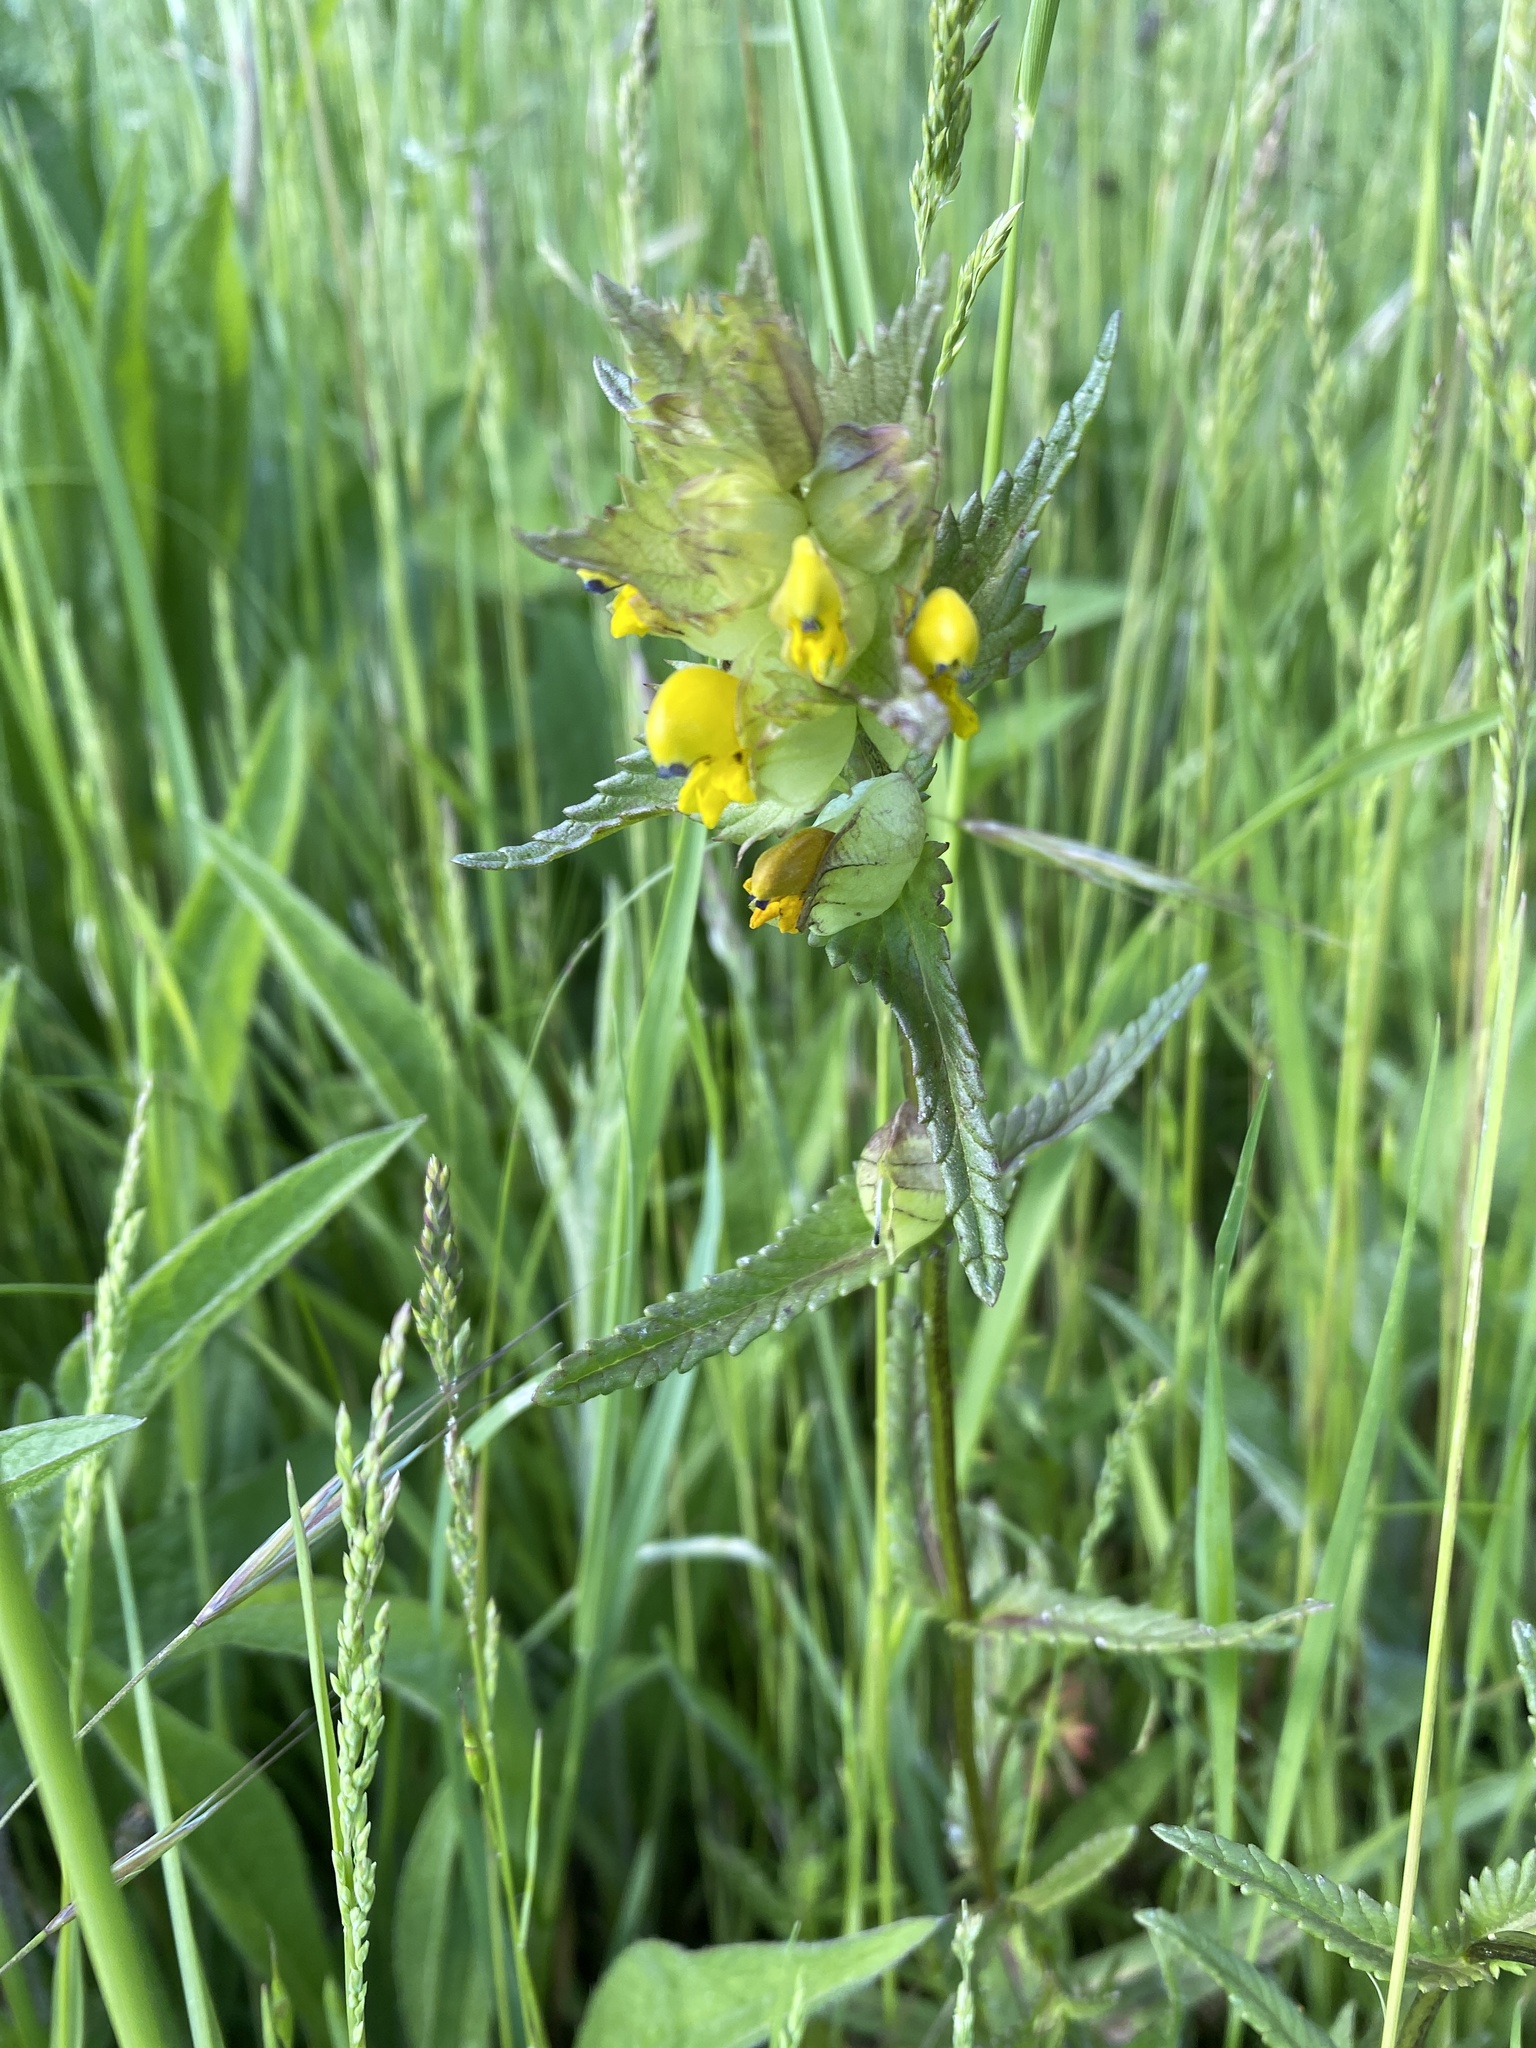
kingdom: Plantae
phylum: Tracheophyta
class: Magnoliopsida
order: Lamiales
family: Orobanchaceae
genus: Rhinanthus
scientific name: Rhinanthus minor
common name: Yellow-rattle
